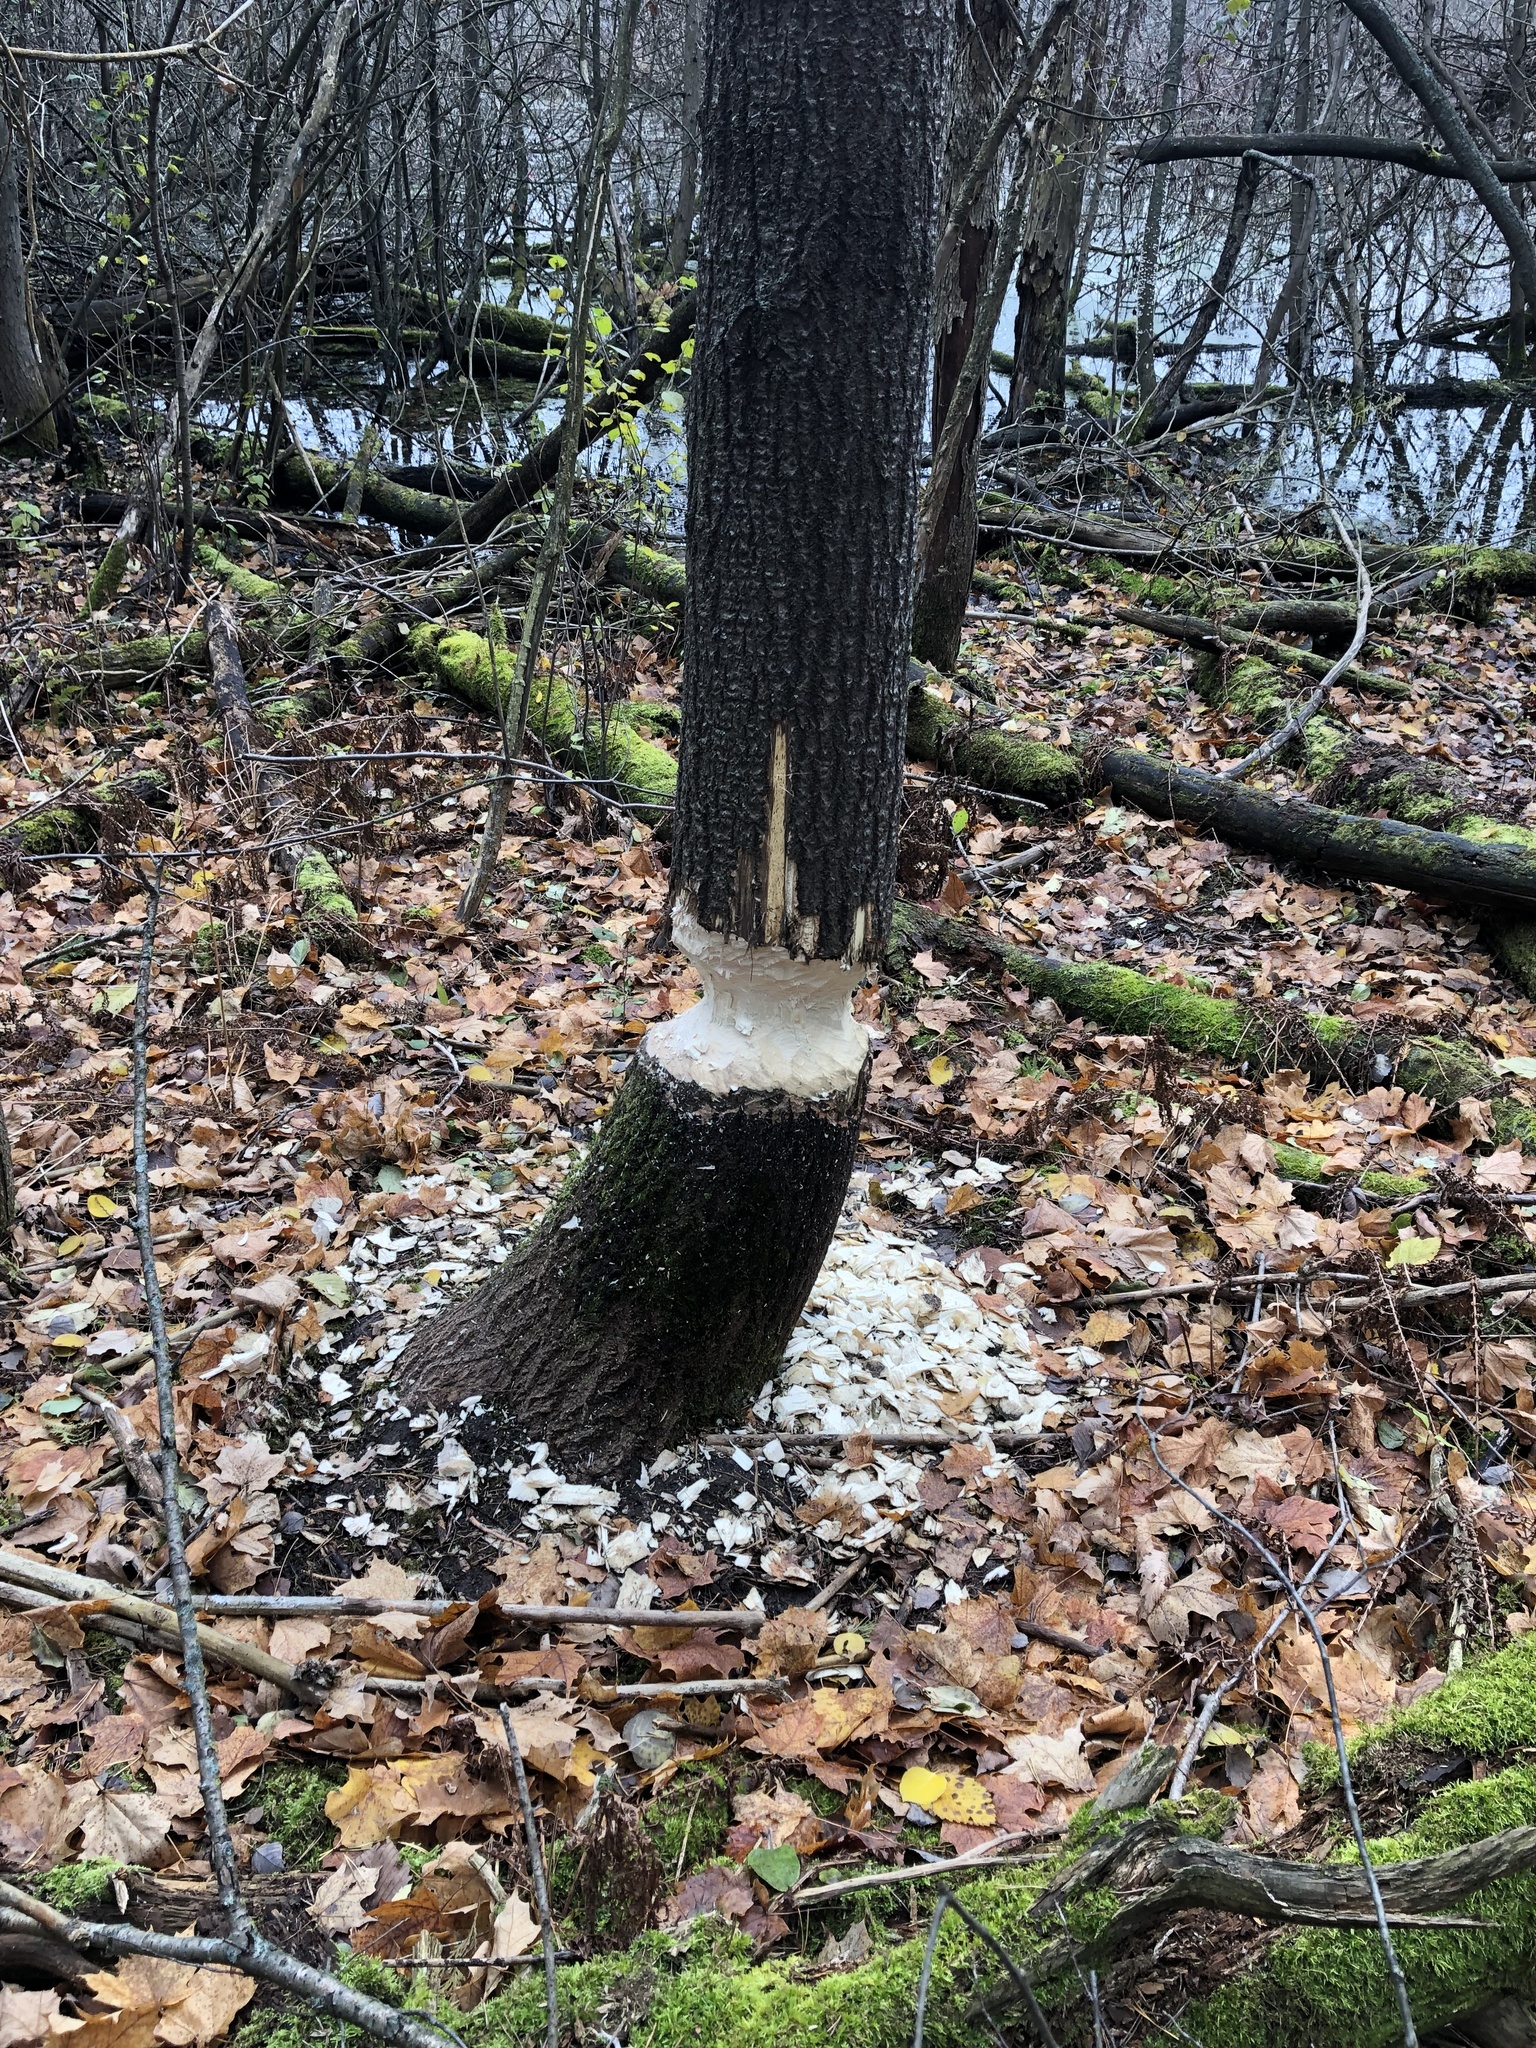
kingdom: Animalia
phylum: Chordata
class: Mammalia
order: Rodentia
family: Castoridae
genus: Castor
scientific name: Castor canadensis
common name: American beaver
